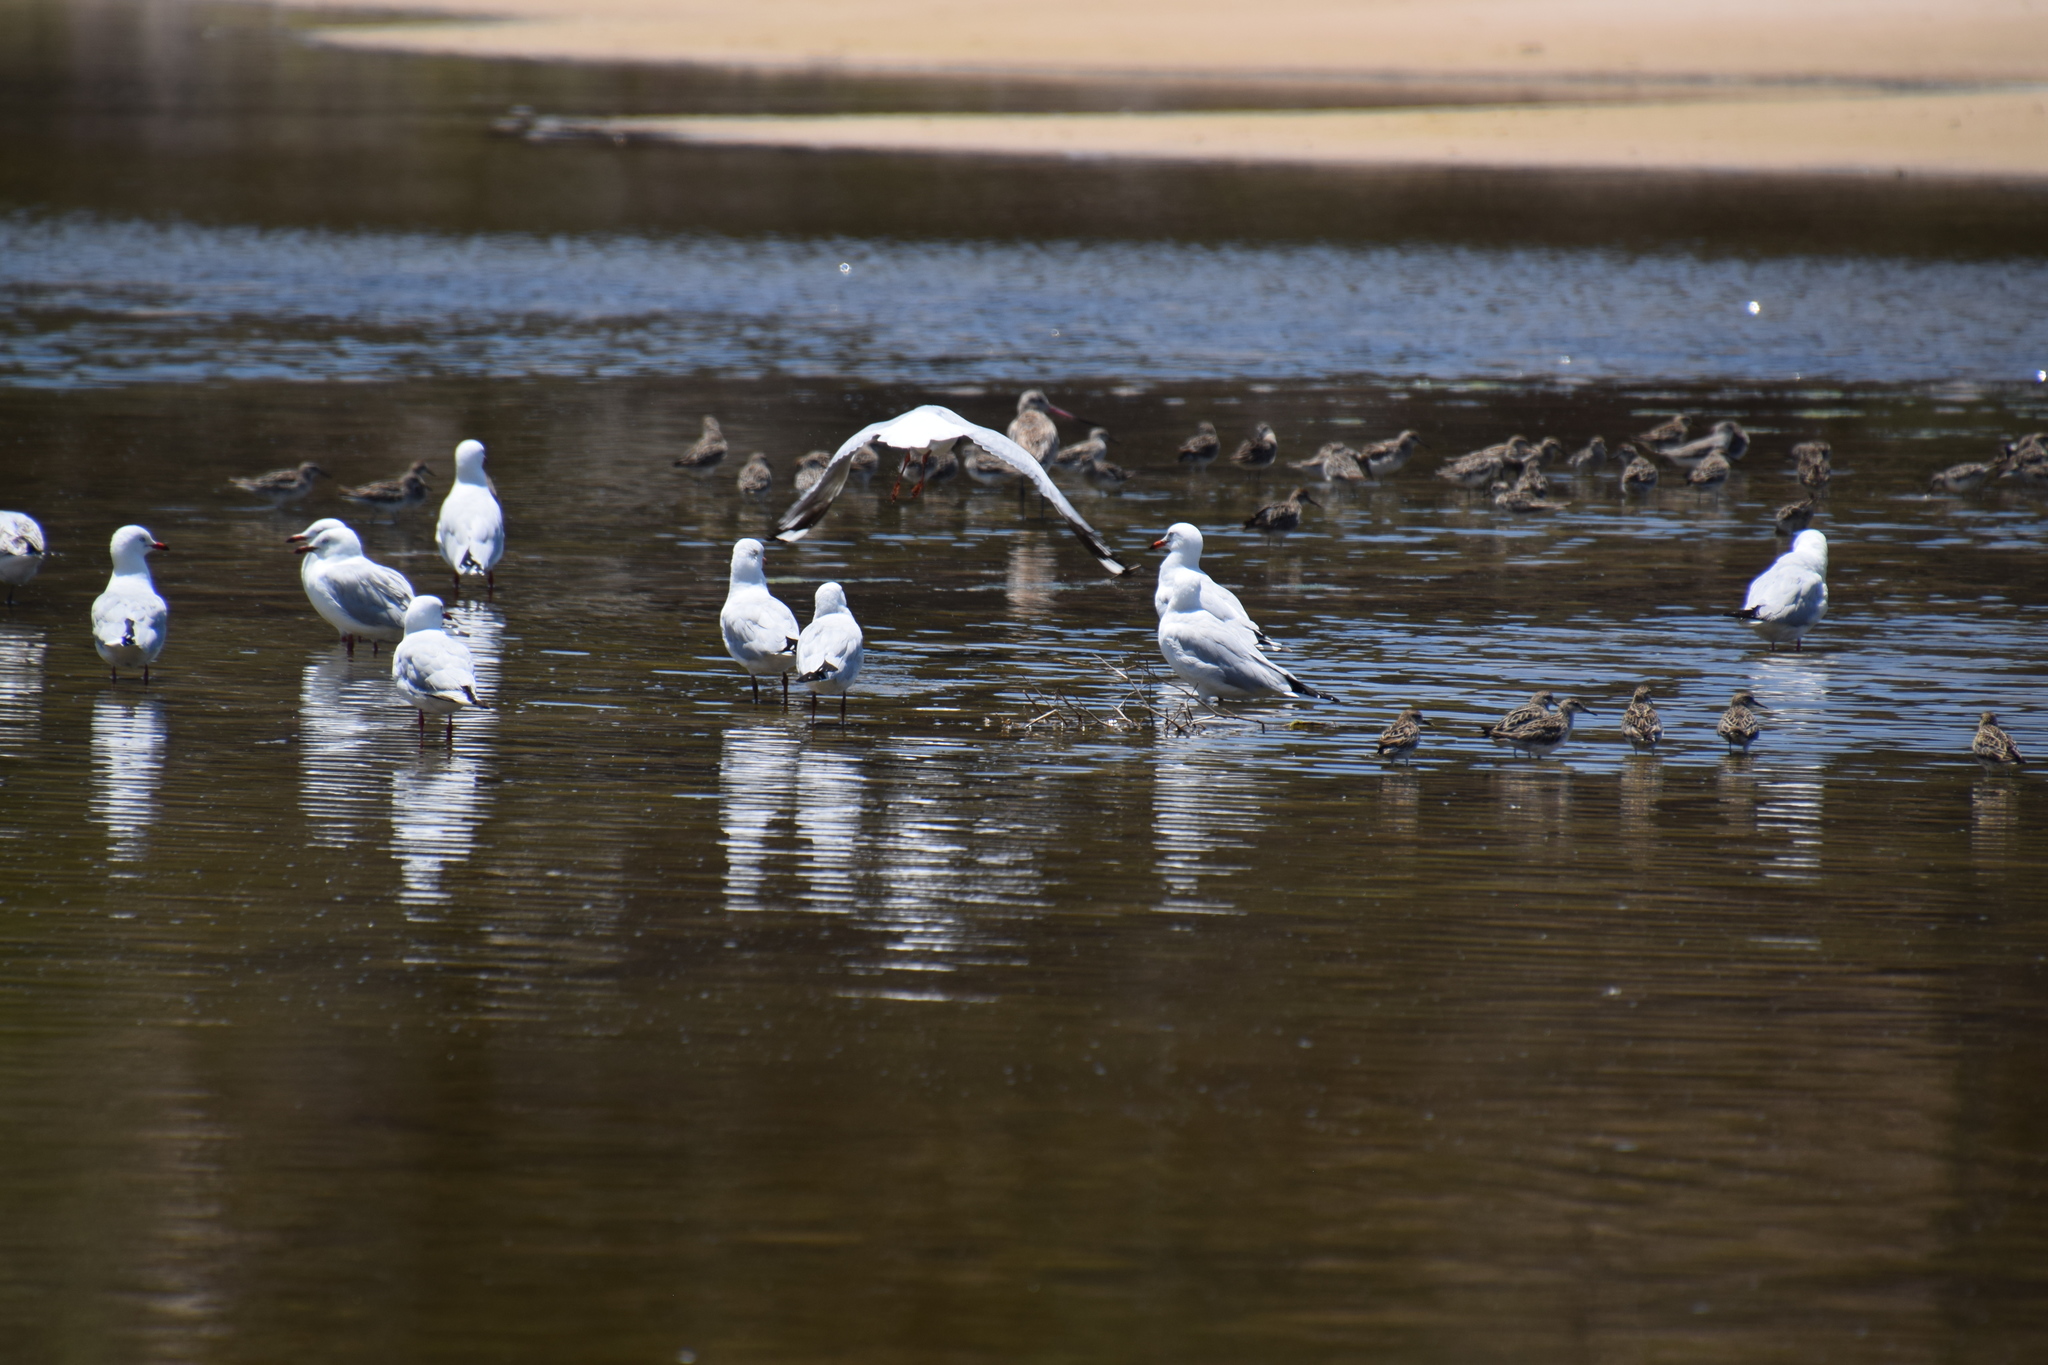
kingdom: Animalia
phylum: Chordata
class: Aves
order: Charadriiformes
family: Scolopacidae
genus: Calidris
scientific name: Calidris acuminata
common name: Sharp-tailed sandpiper
